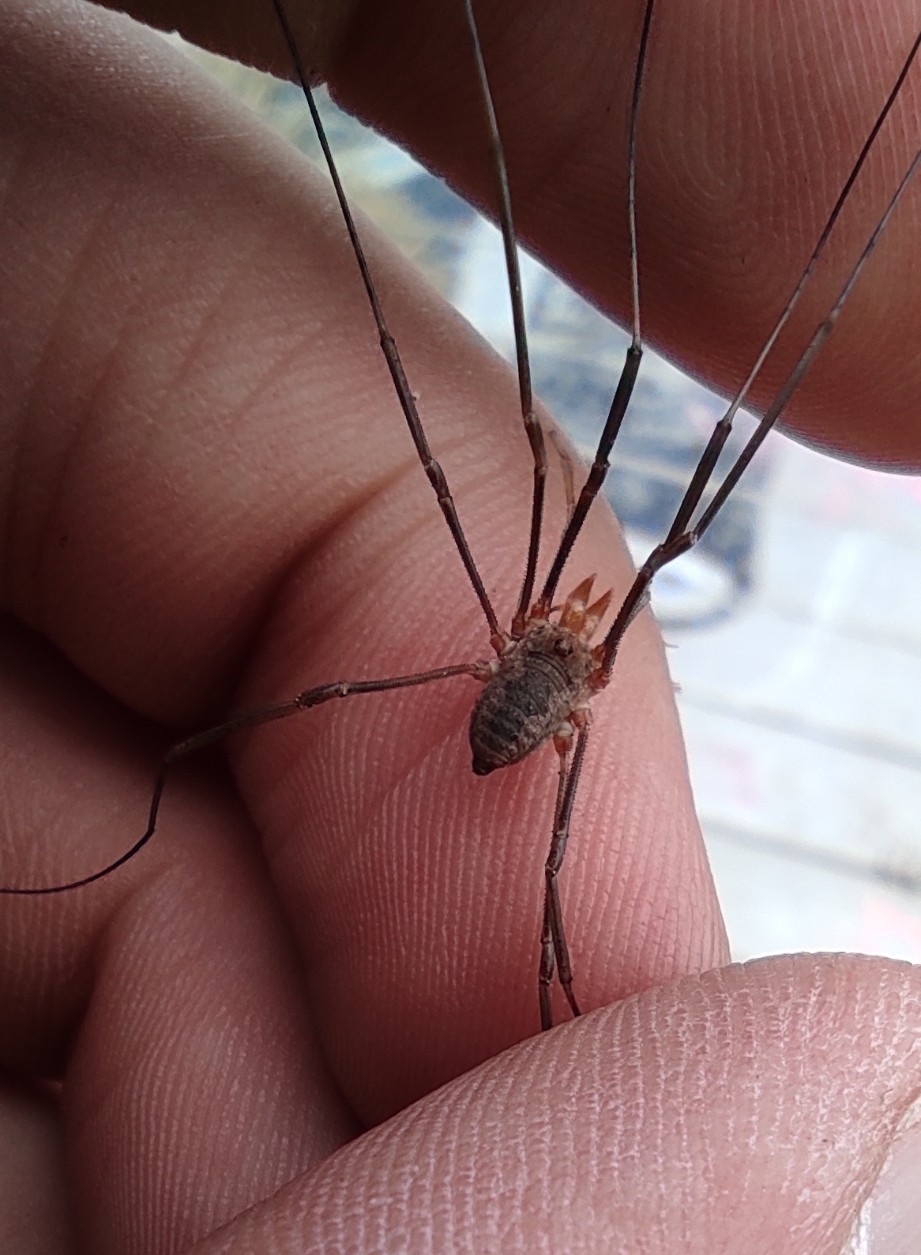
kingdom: Animalia
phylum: Arthropoda
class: Arachnida
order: Opiliones
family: Phalangiidae
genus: Phalangium
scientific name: Phalangium opilio
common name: Daddy longleg
